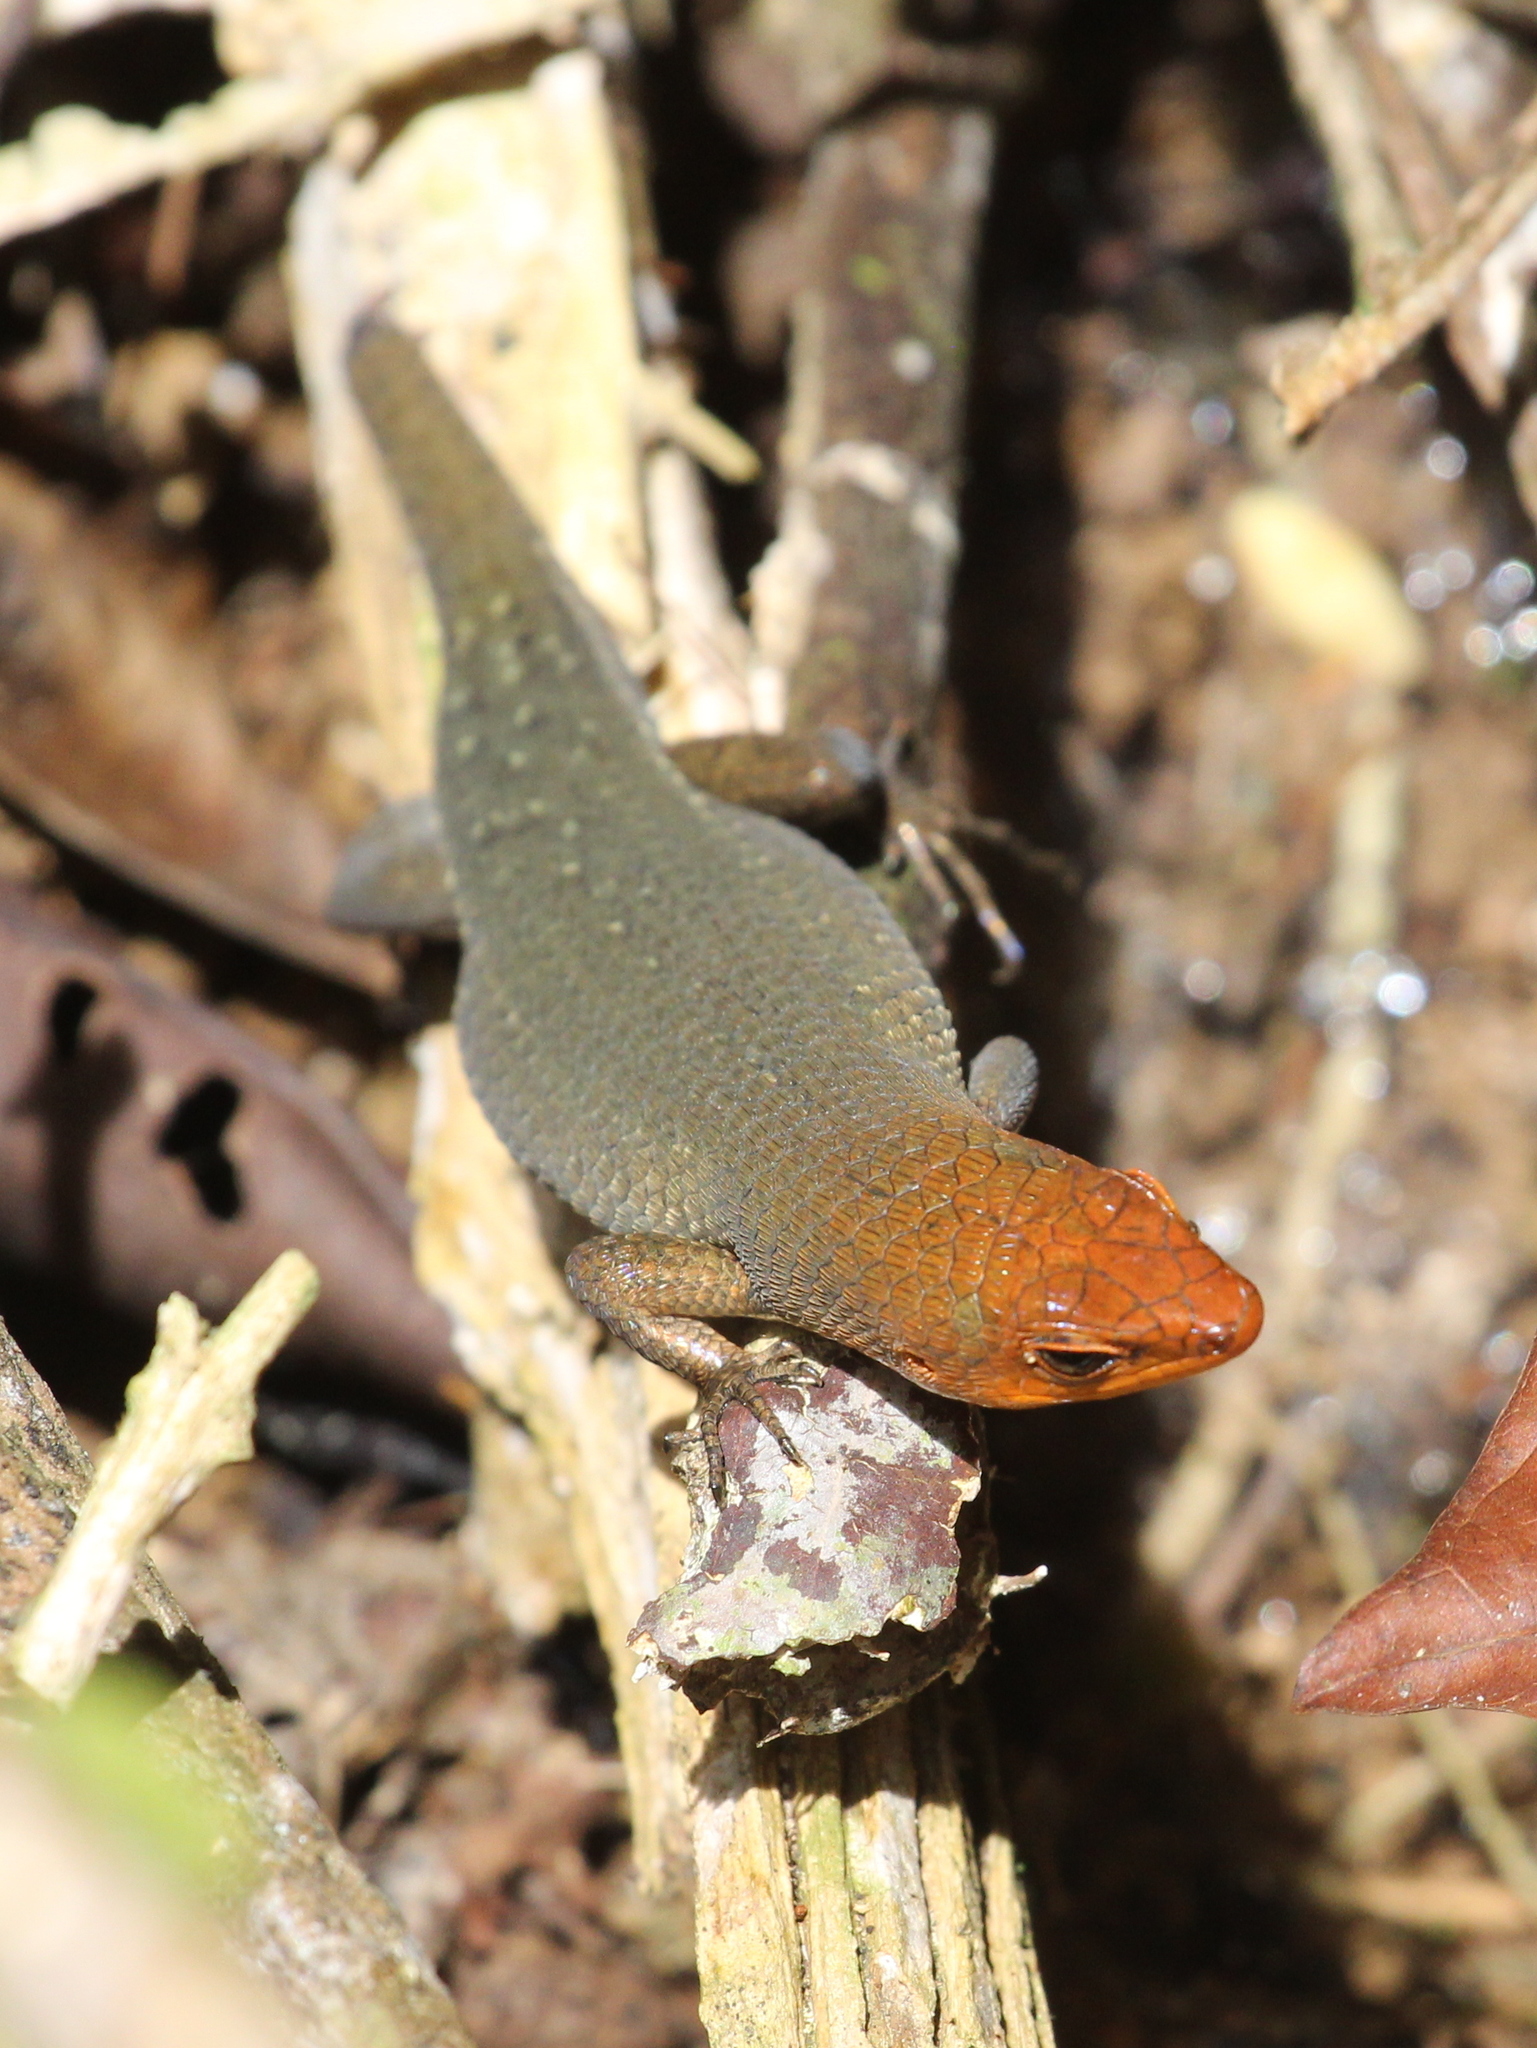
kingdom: Animalia
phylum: Chordata
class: Squamata
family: Scincidae
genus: Eutropis
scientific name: Eutropis rugifera
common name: Rough-scaled sun skink
